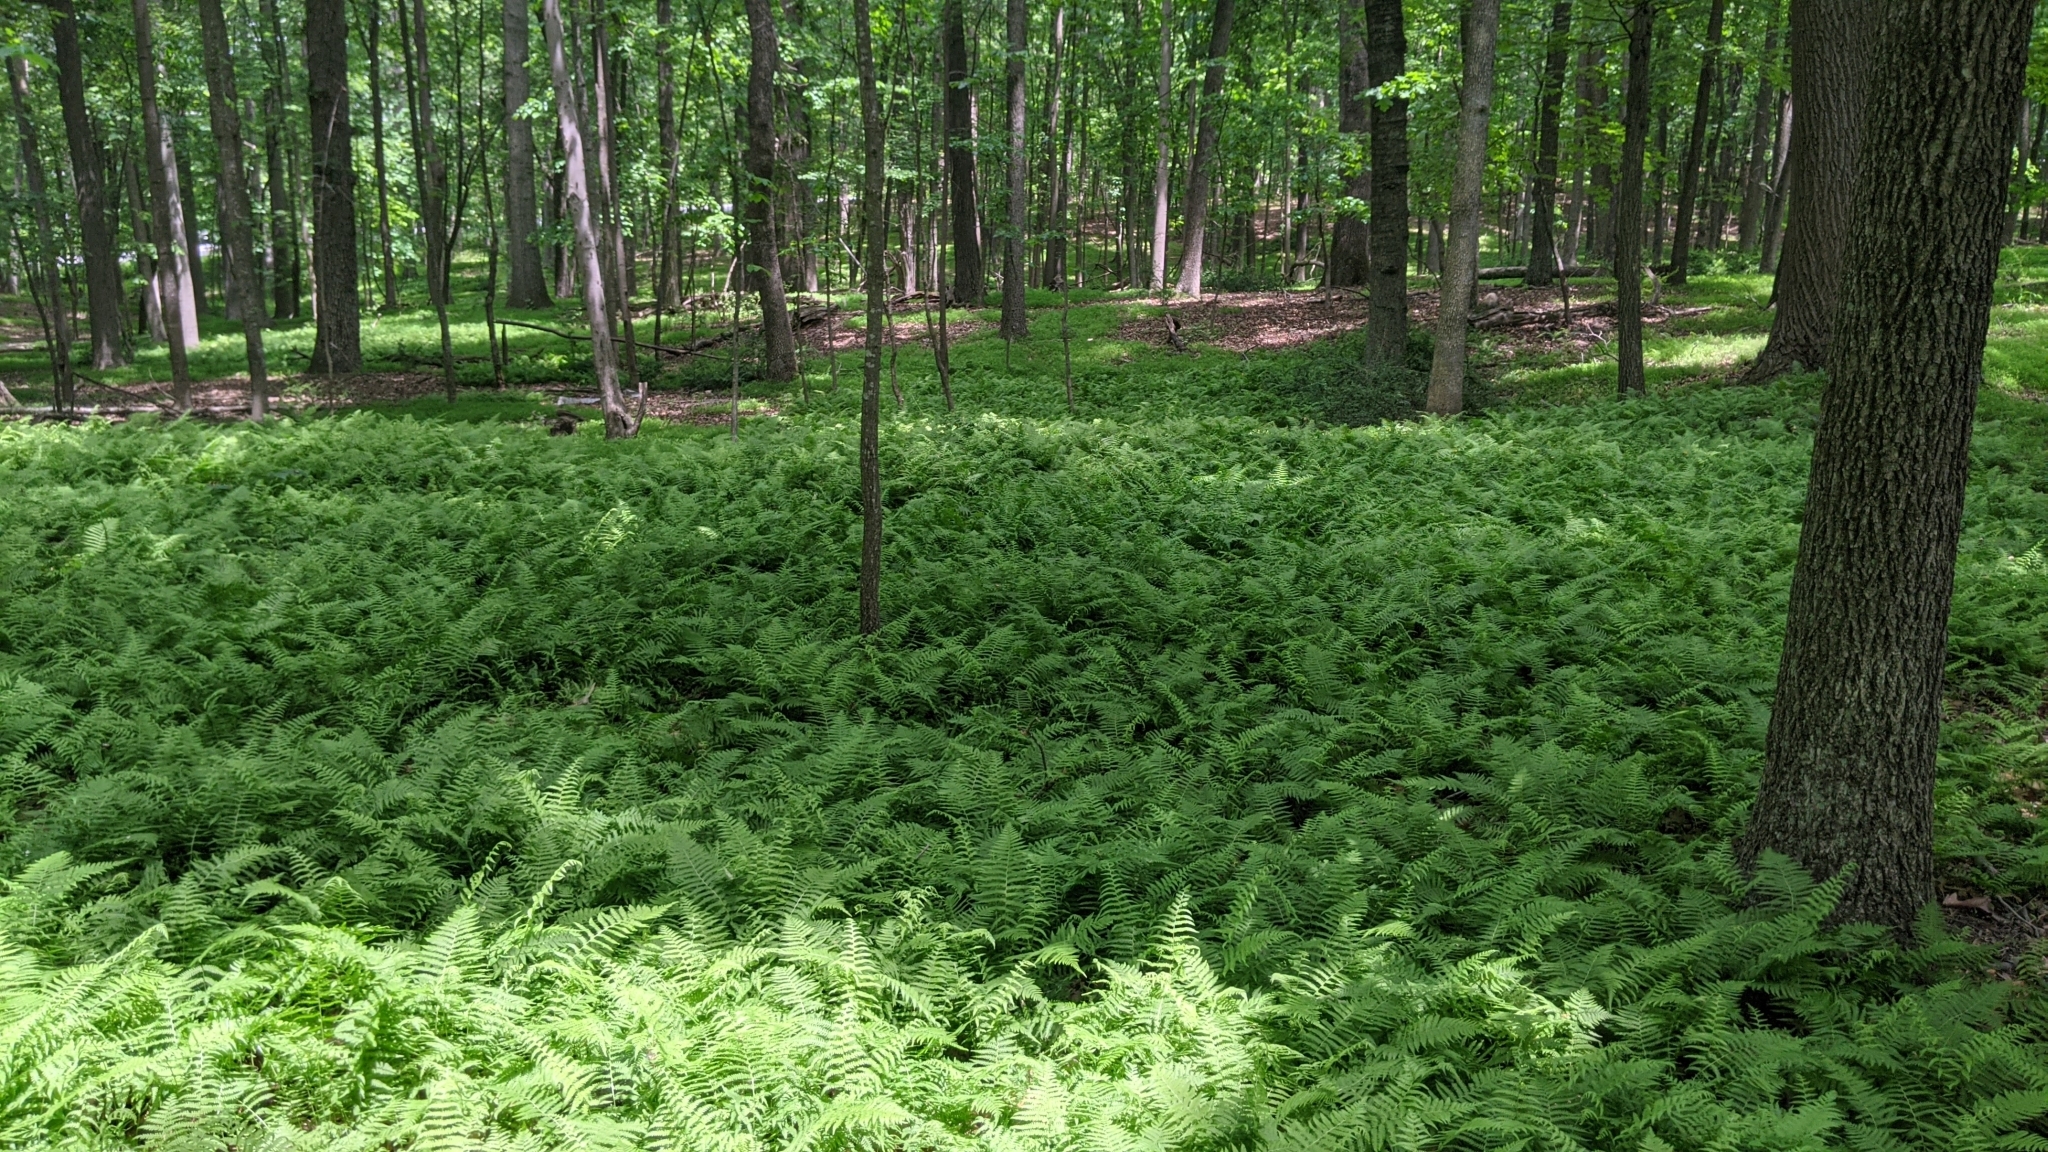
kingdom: Plantae
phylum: Tracheophyta
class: Polypodiopsida
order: Polypodiales
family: Thelypteridaceae
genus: Amauropelta
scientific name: Amauropelta noveboracensis
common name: New york fern
